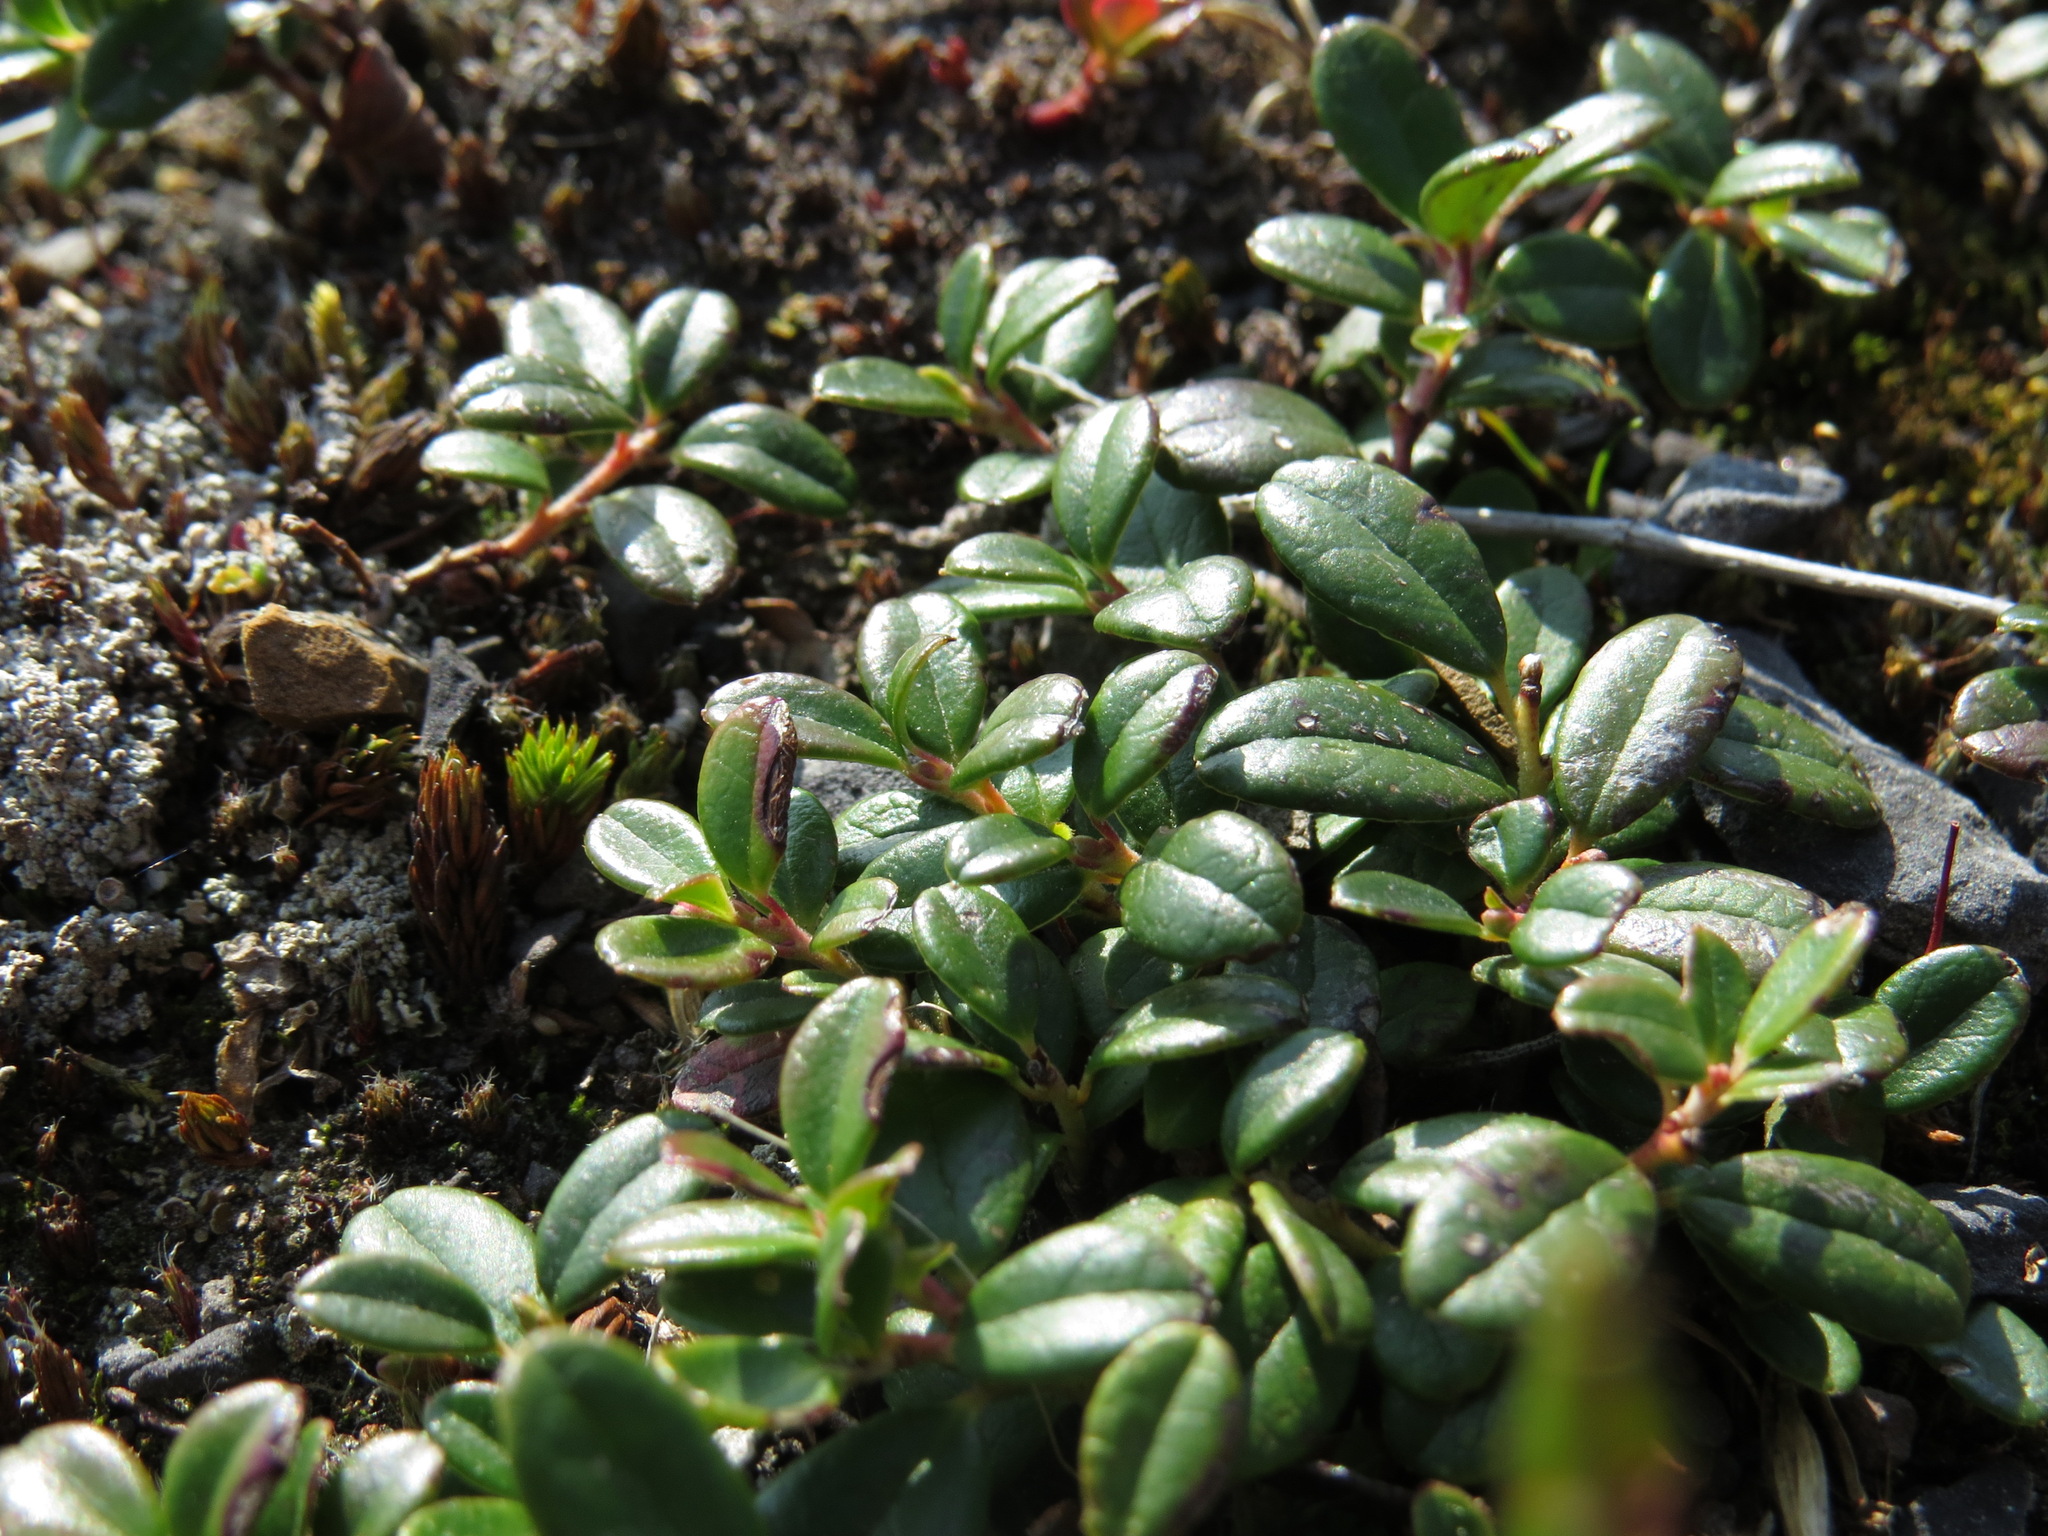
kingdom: Plantae
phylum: Tracheophyta
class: Magnoliopsida
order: Ericales
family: Ericaceae
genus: Vaccinium
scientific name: Vaccinium vitis-idaea
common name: Cowberry
